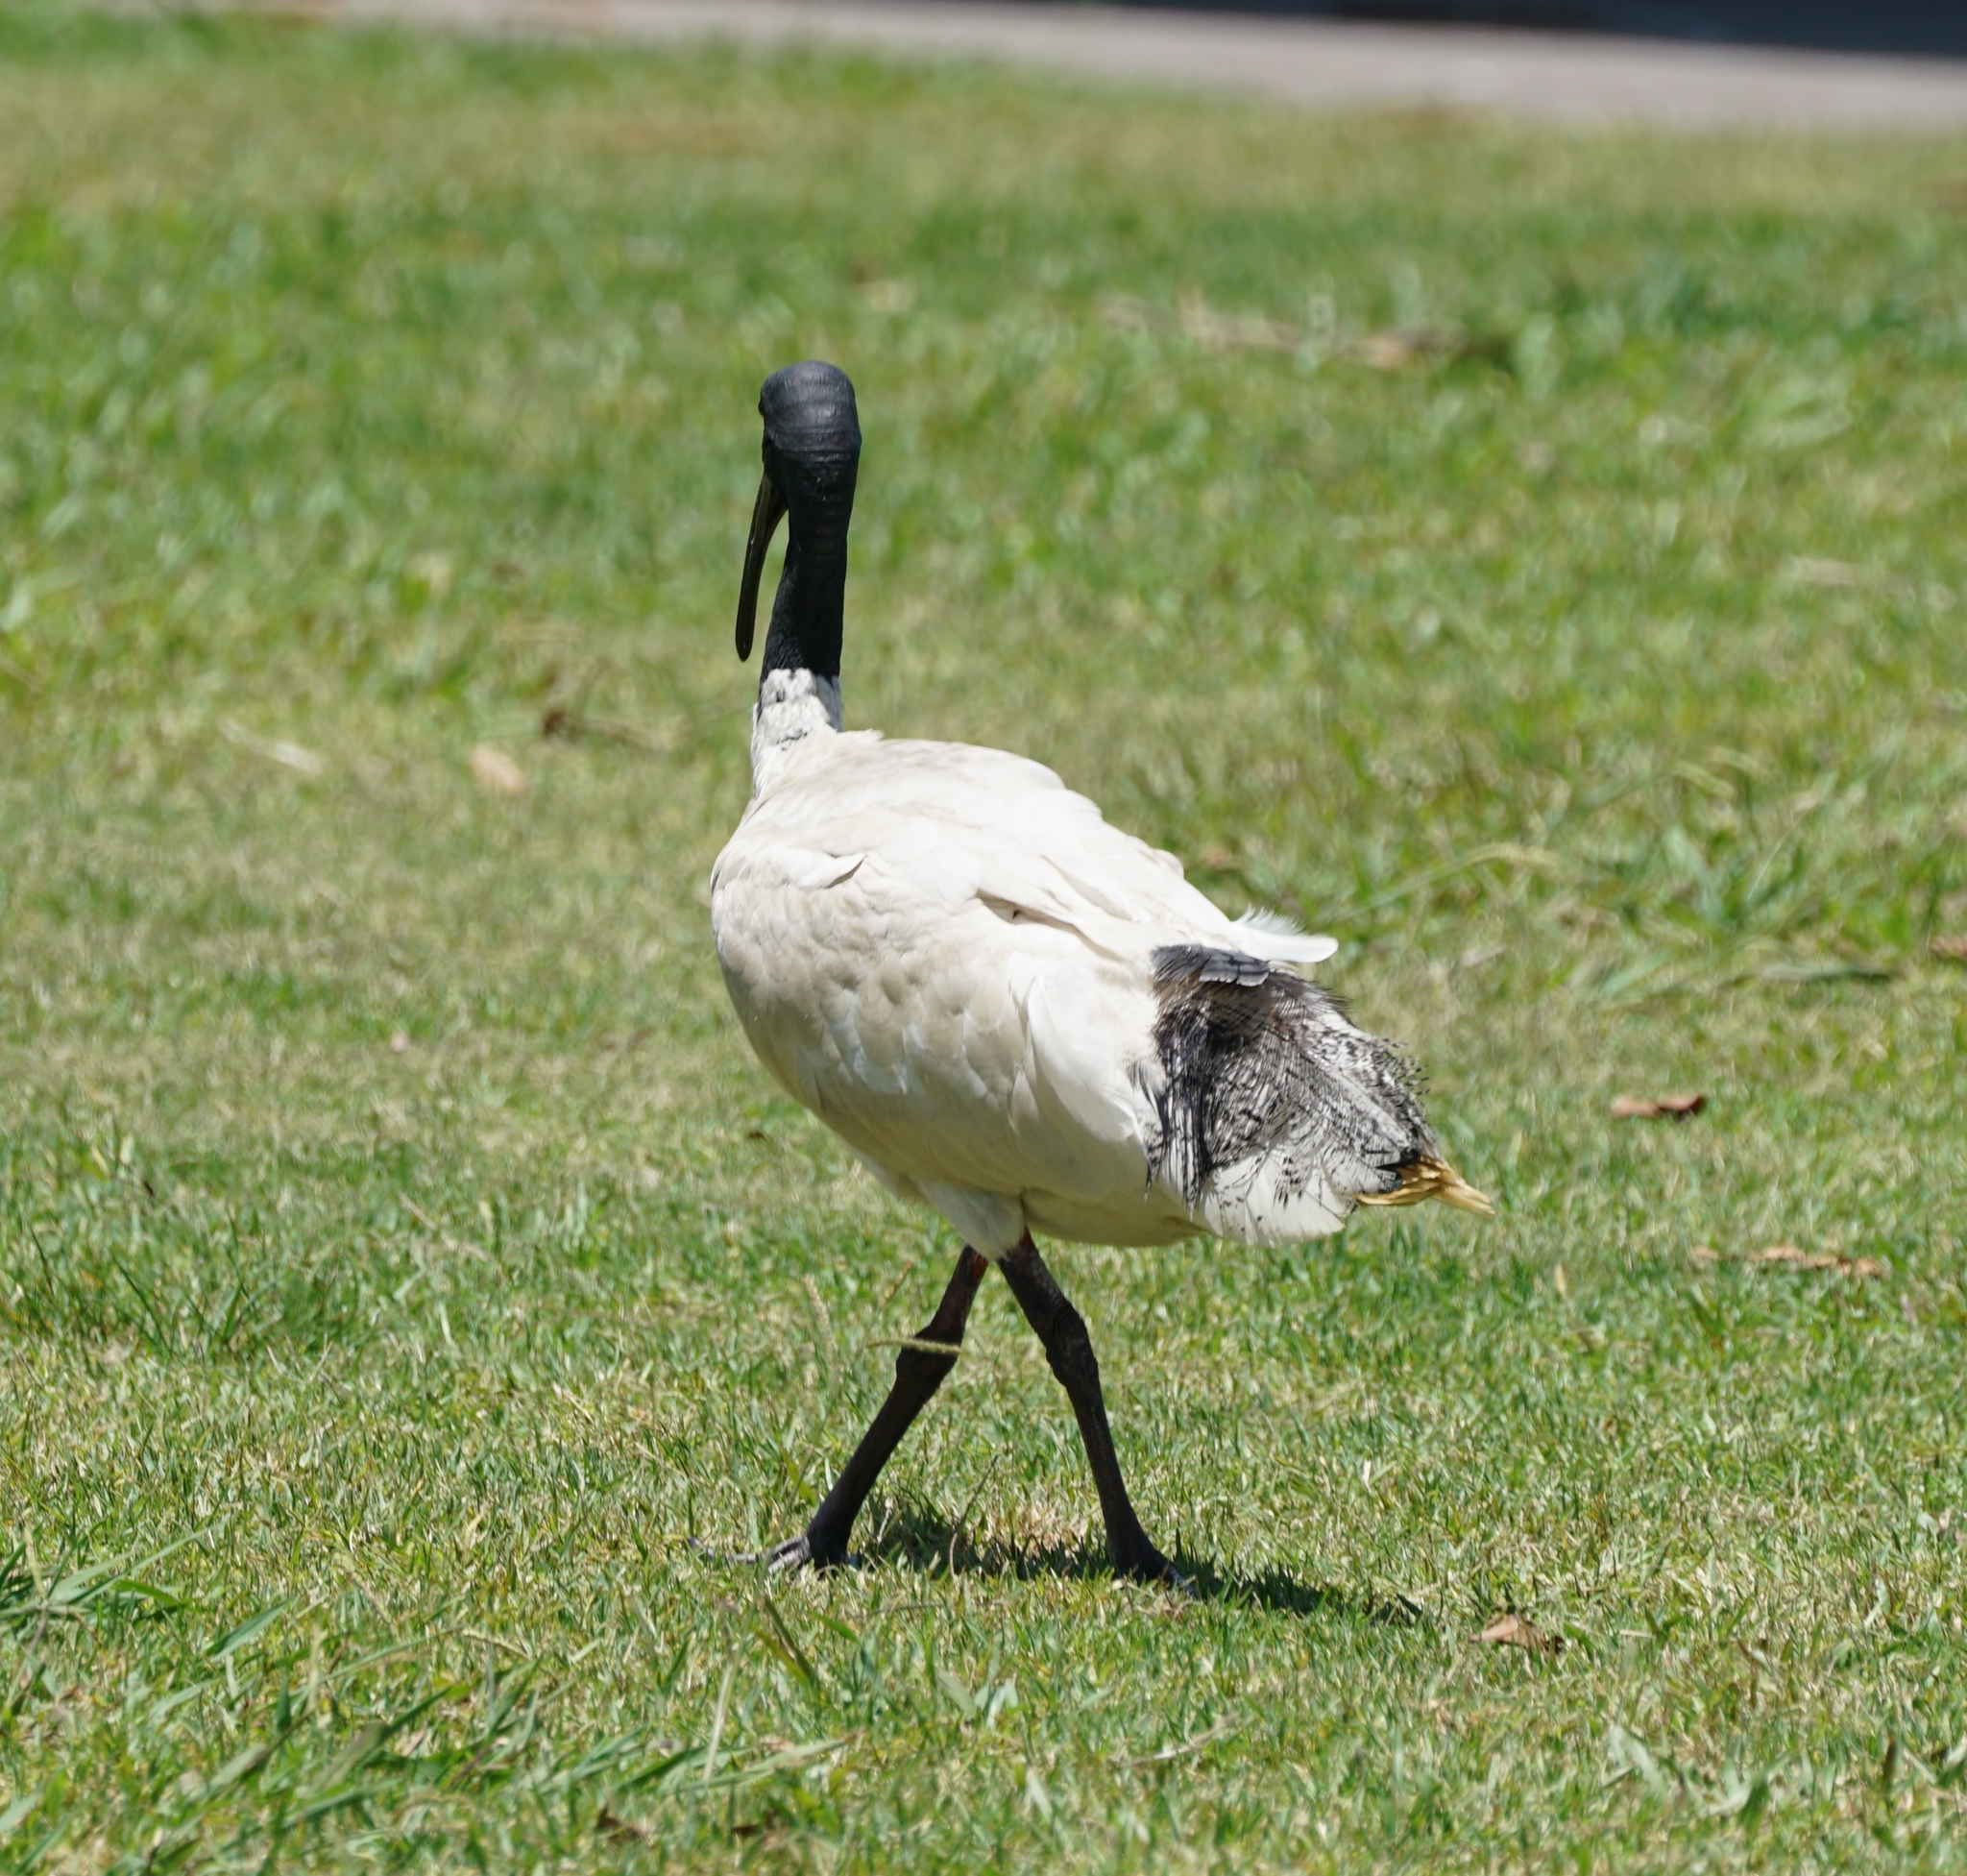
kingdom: Animalia
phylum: Chordata
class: Aves
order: Pelecaniformes
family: Threskiornithidae
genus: Threskiornis
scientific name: Threskiornis molucca
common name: Australian white ibis
